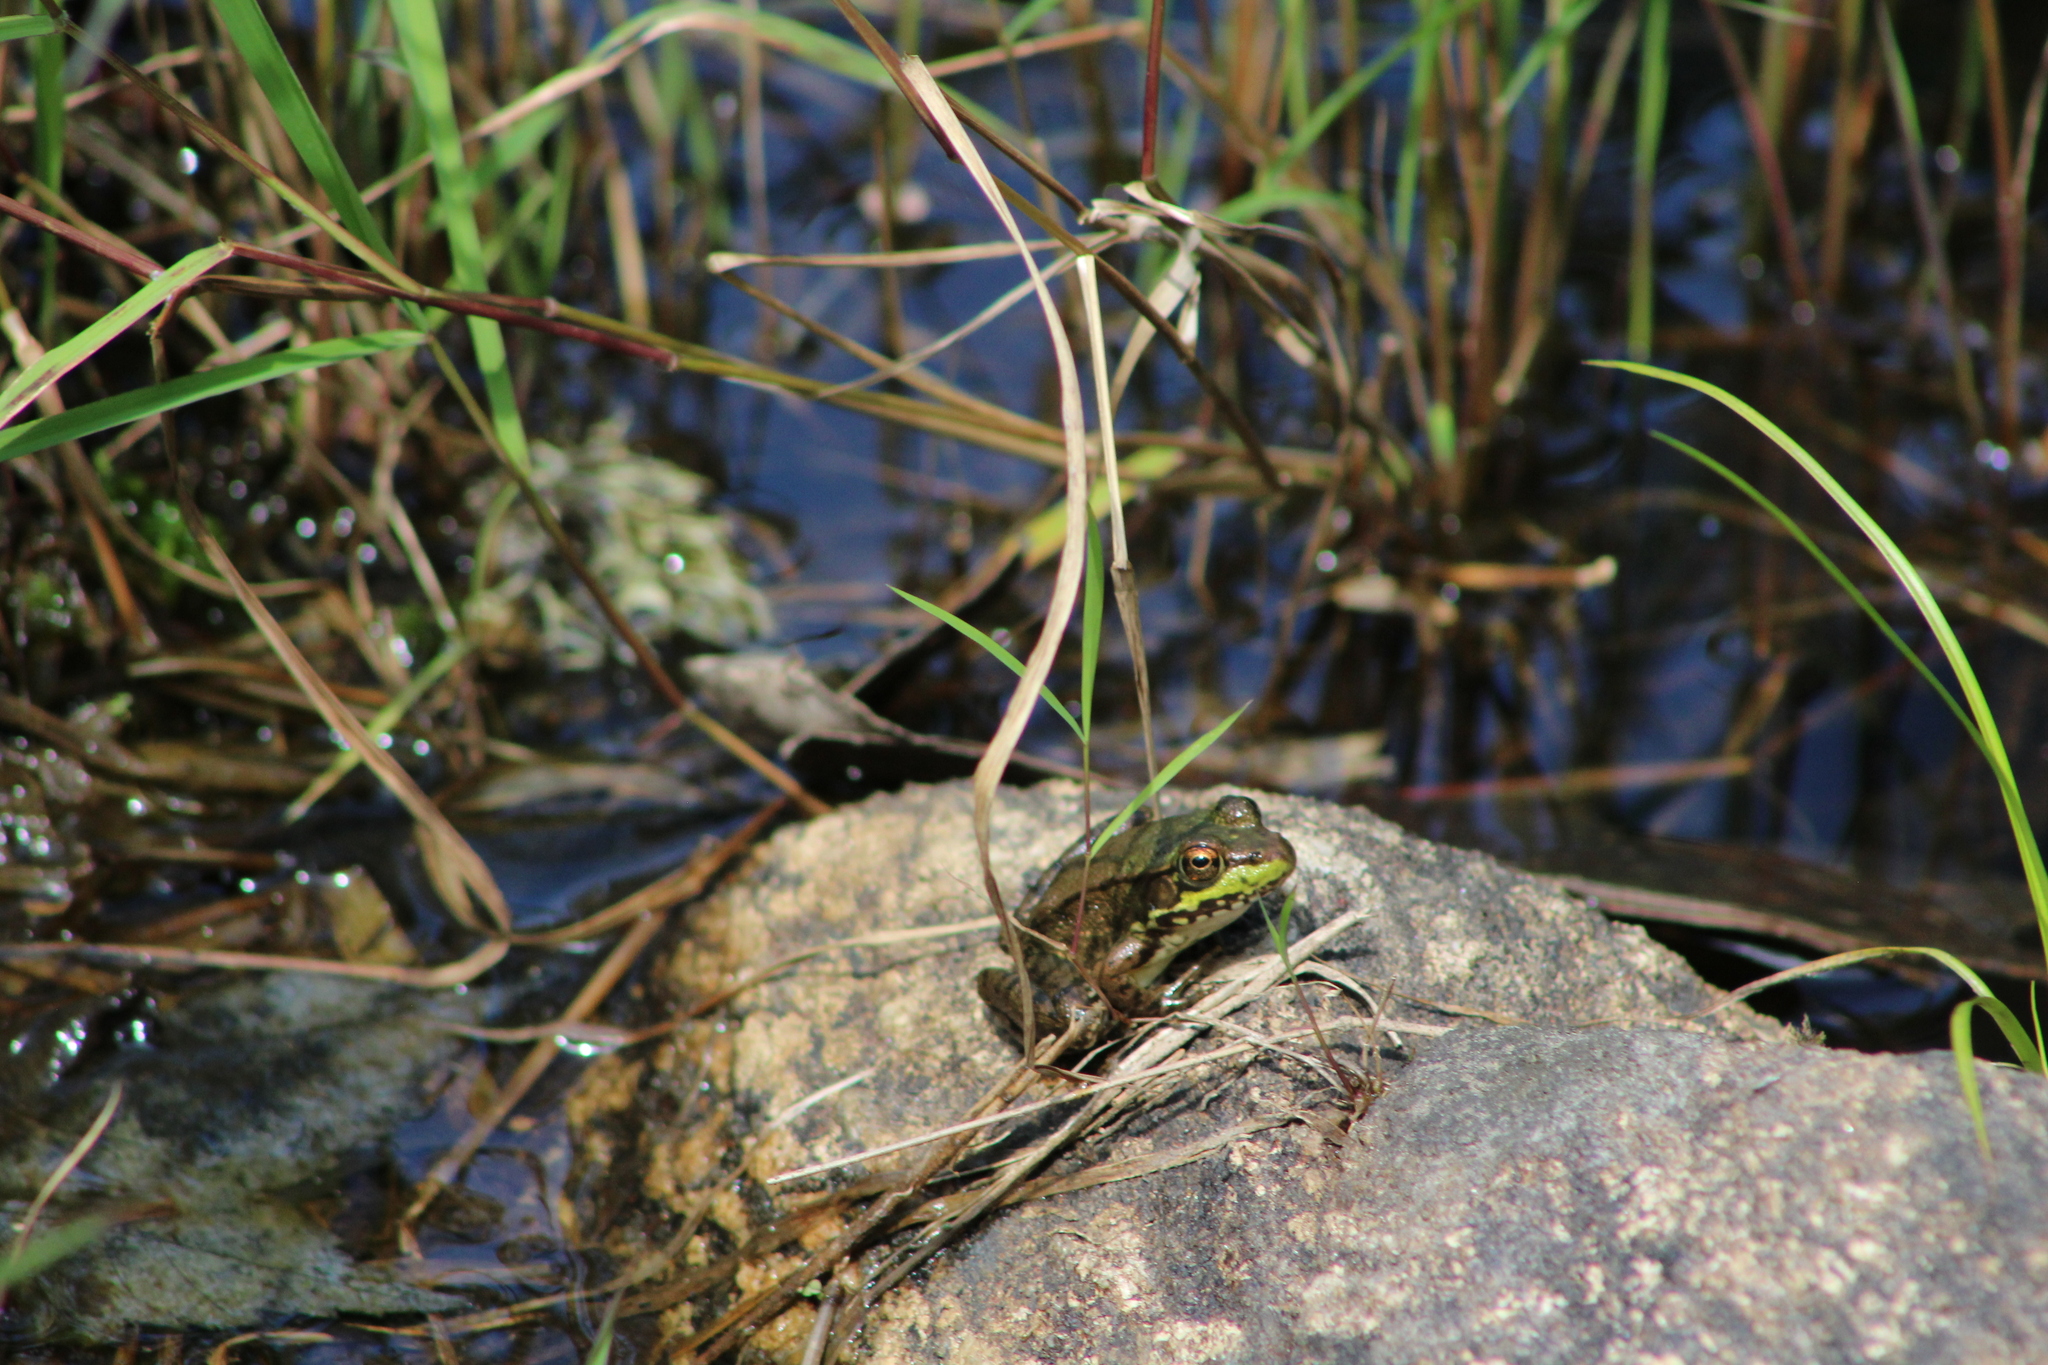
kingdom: Animalia
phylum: Chordata
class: Amphibia
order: Anura
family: Ranidae
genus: Lithobates
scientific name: Lithobates clamitans
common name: Green frog
